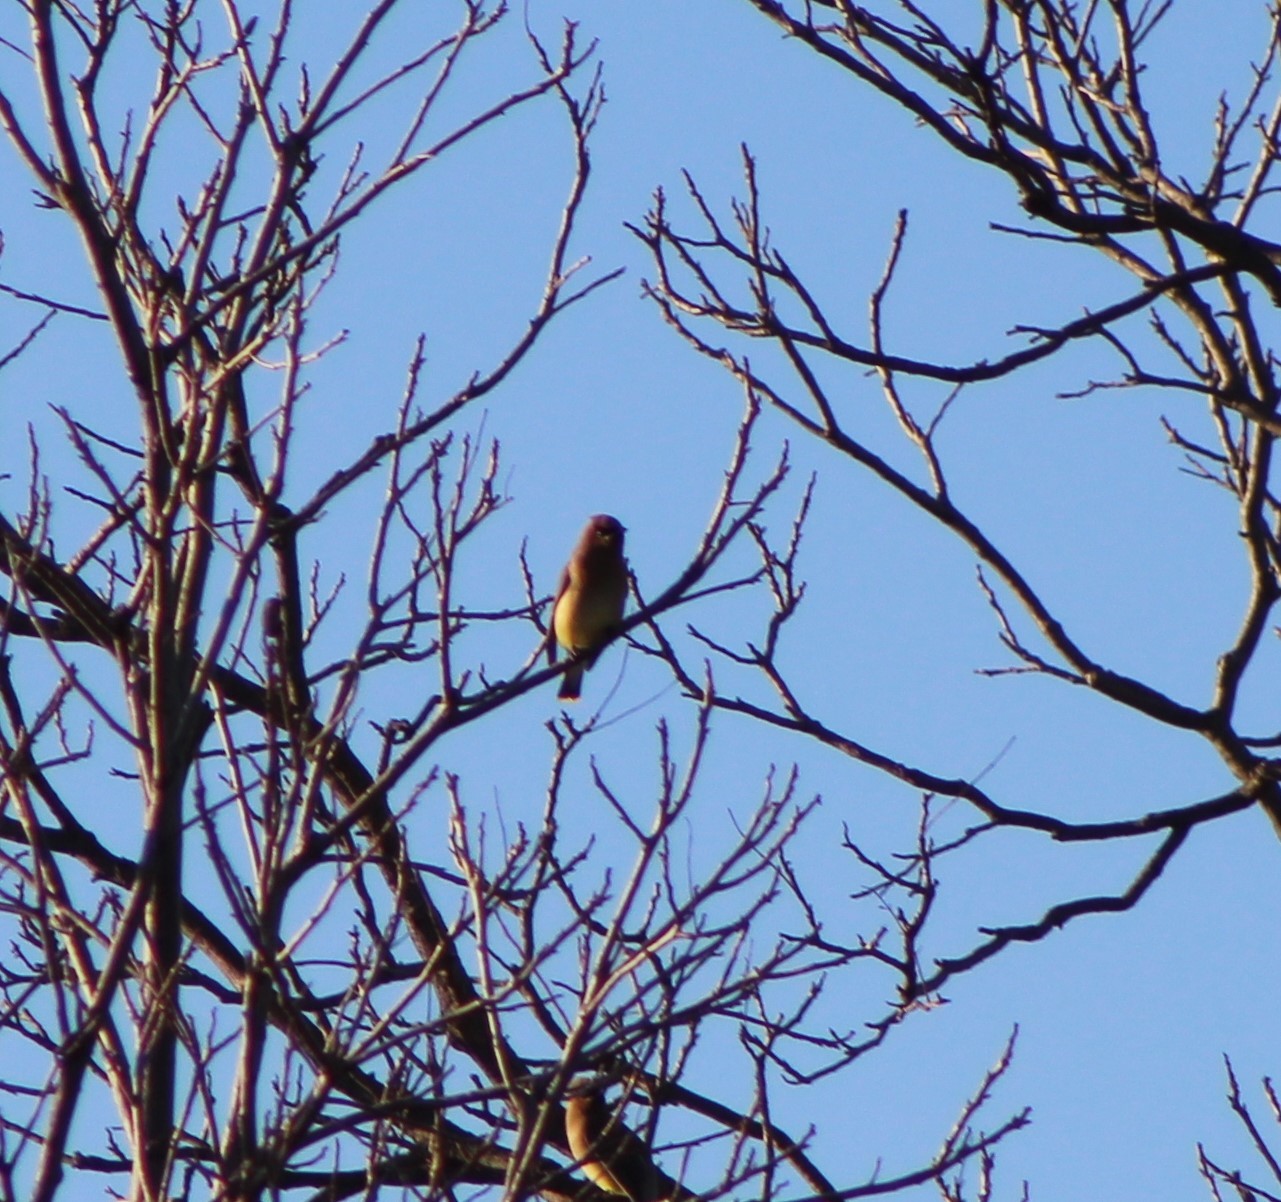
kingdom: Animalia
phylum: Chordata
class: Aves
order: Passeriformes
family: Bombycillidae
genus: Bombycilla
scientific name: Bombycilla cedrorum
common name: Cedar waxwing
